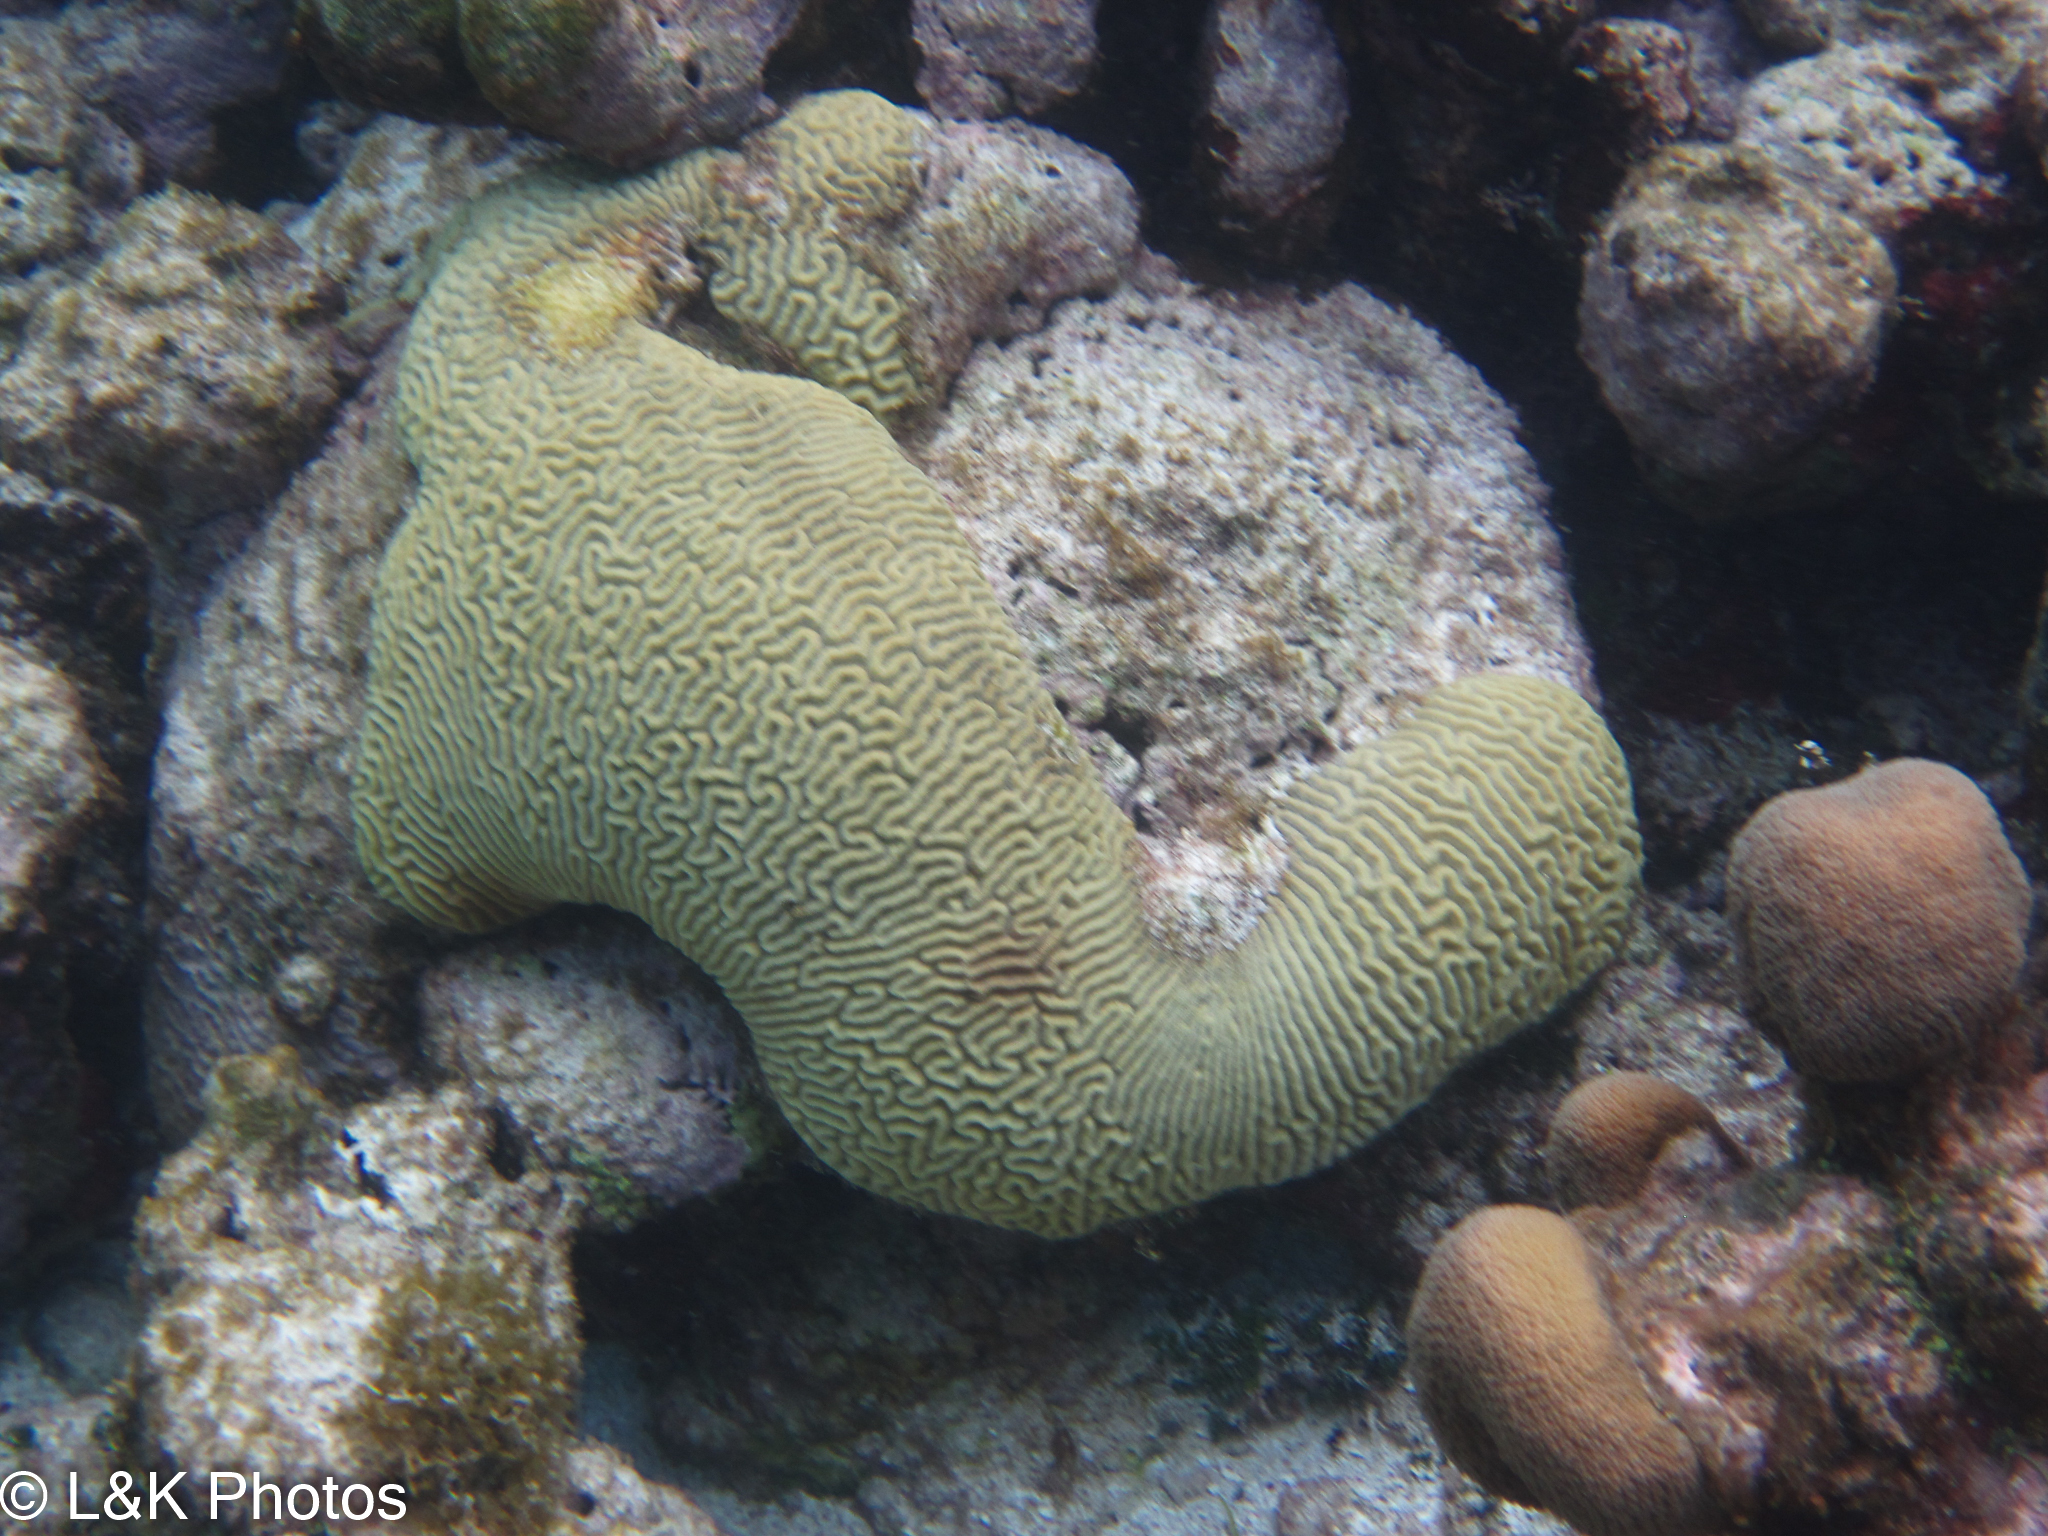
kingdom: Animalia
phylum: Cnidaria
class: Anthozoa
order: Scleractinia
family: Faviidae
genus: Pseudodiploria
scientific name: Pseudodiploria strigosa
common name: Symmetrical brain coral
